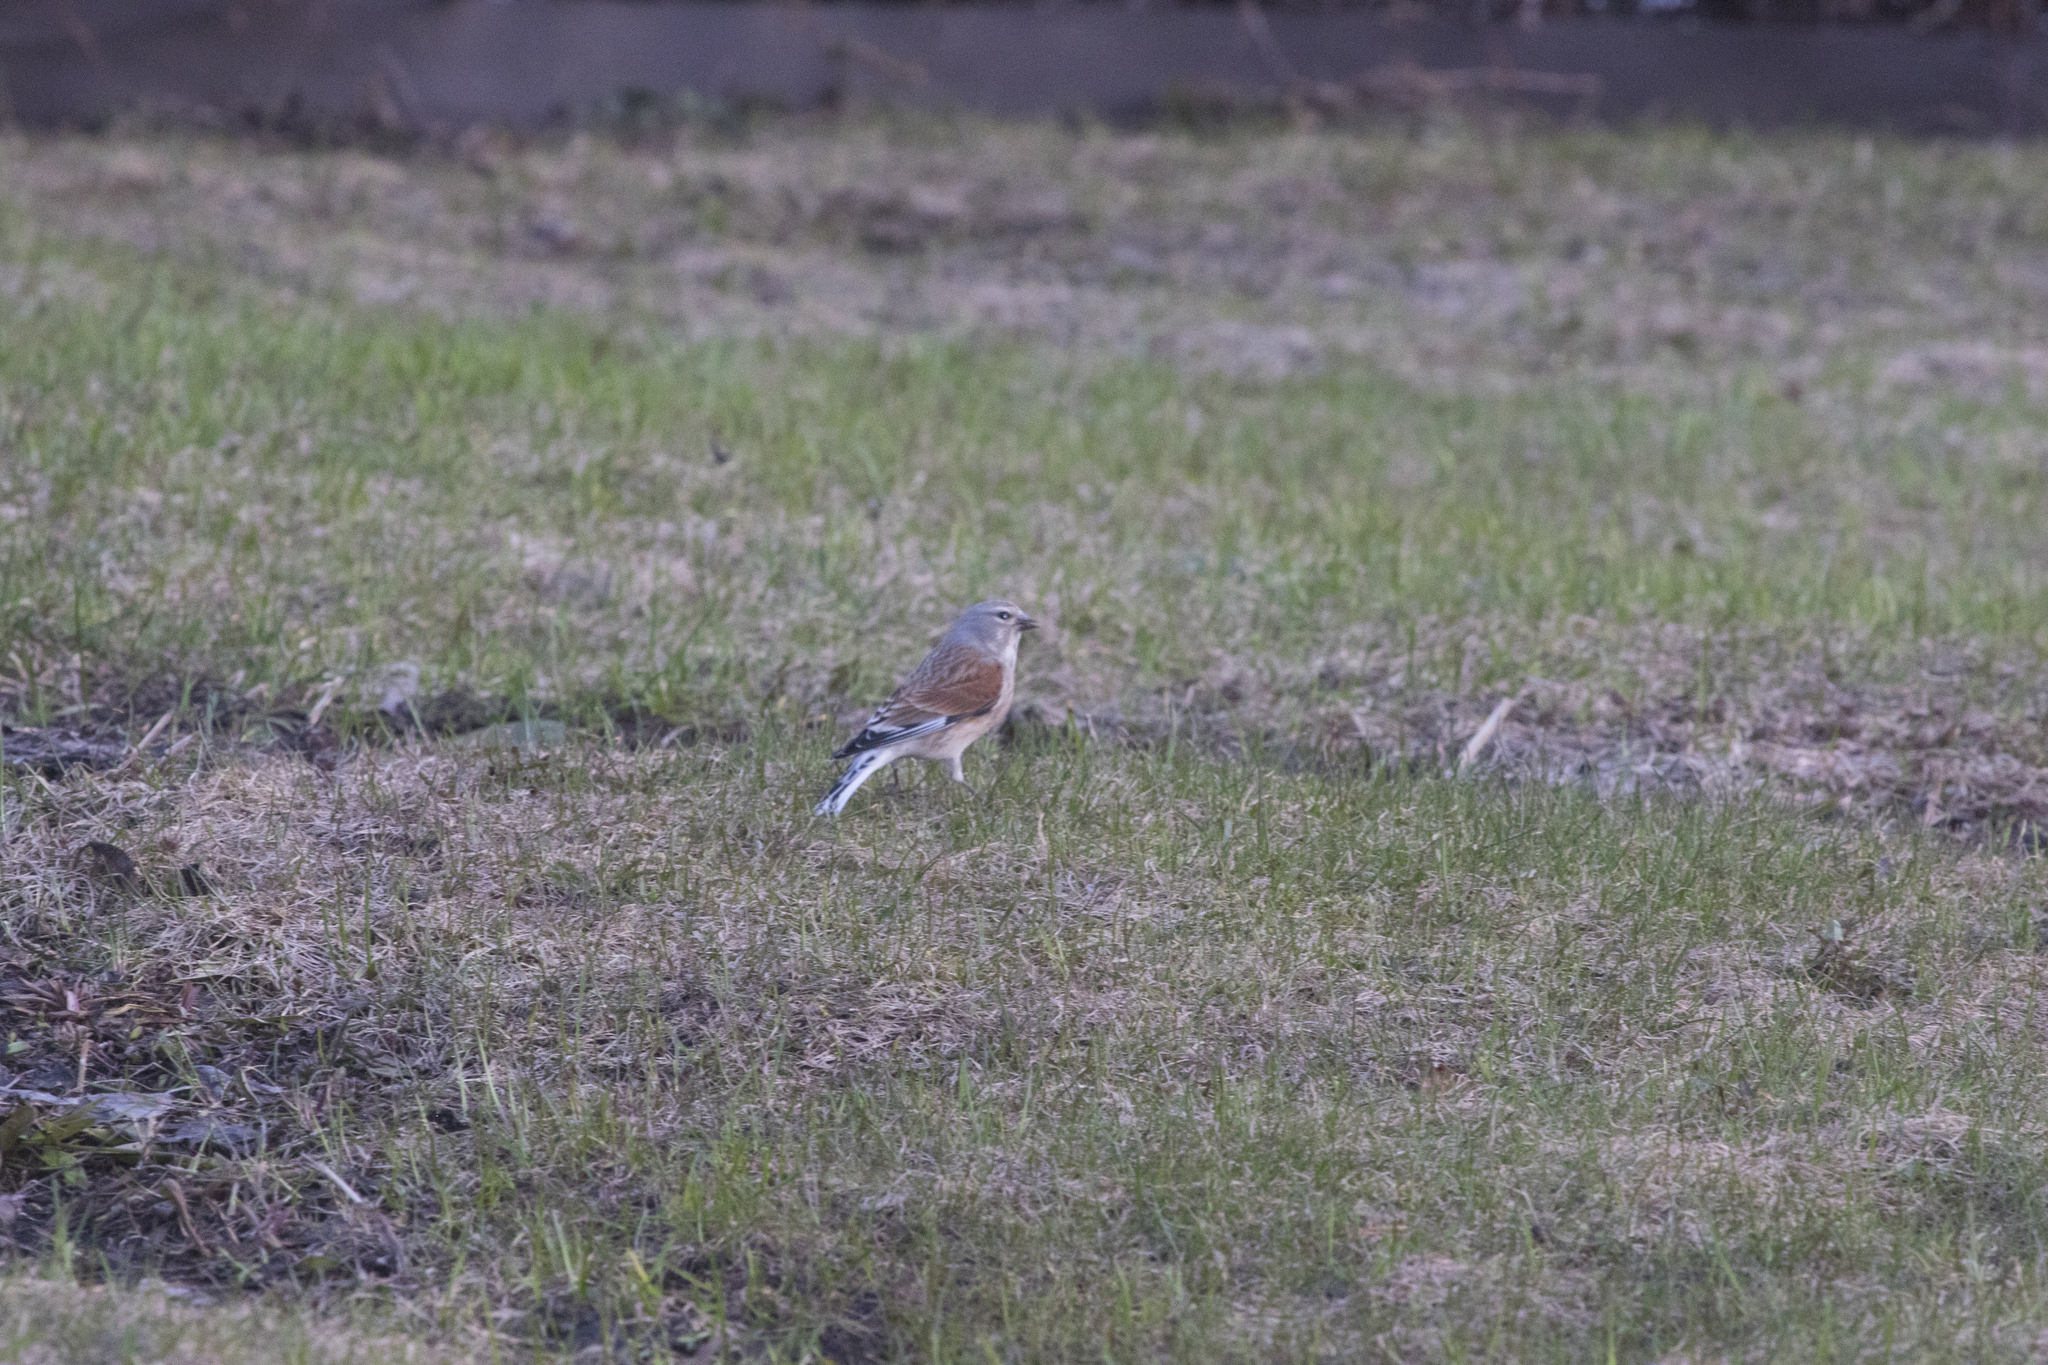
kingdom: Animalia
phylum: Chordata
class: Aves
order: Passeriformes
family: Fringillidae
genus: Linaria
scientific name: Linaria cannabina
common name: Common linnet
